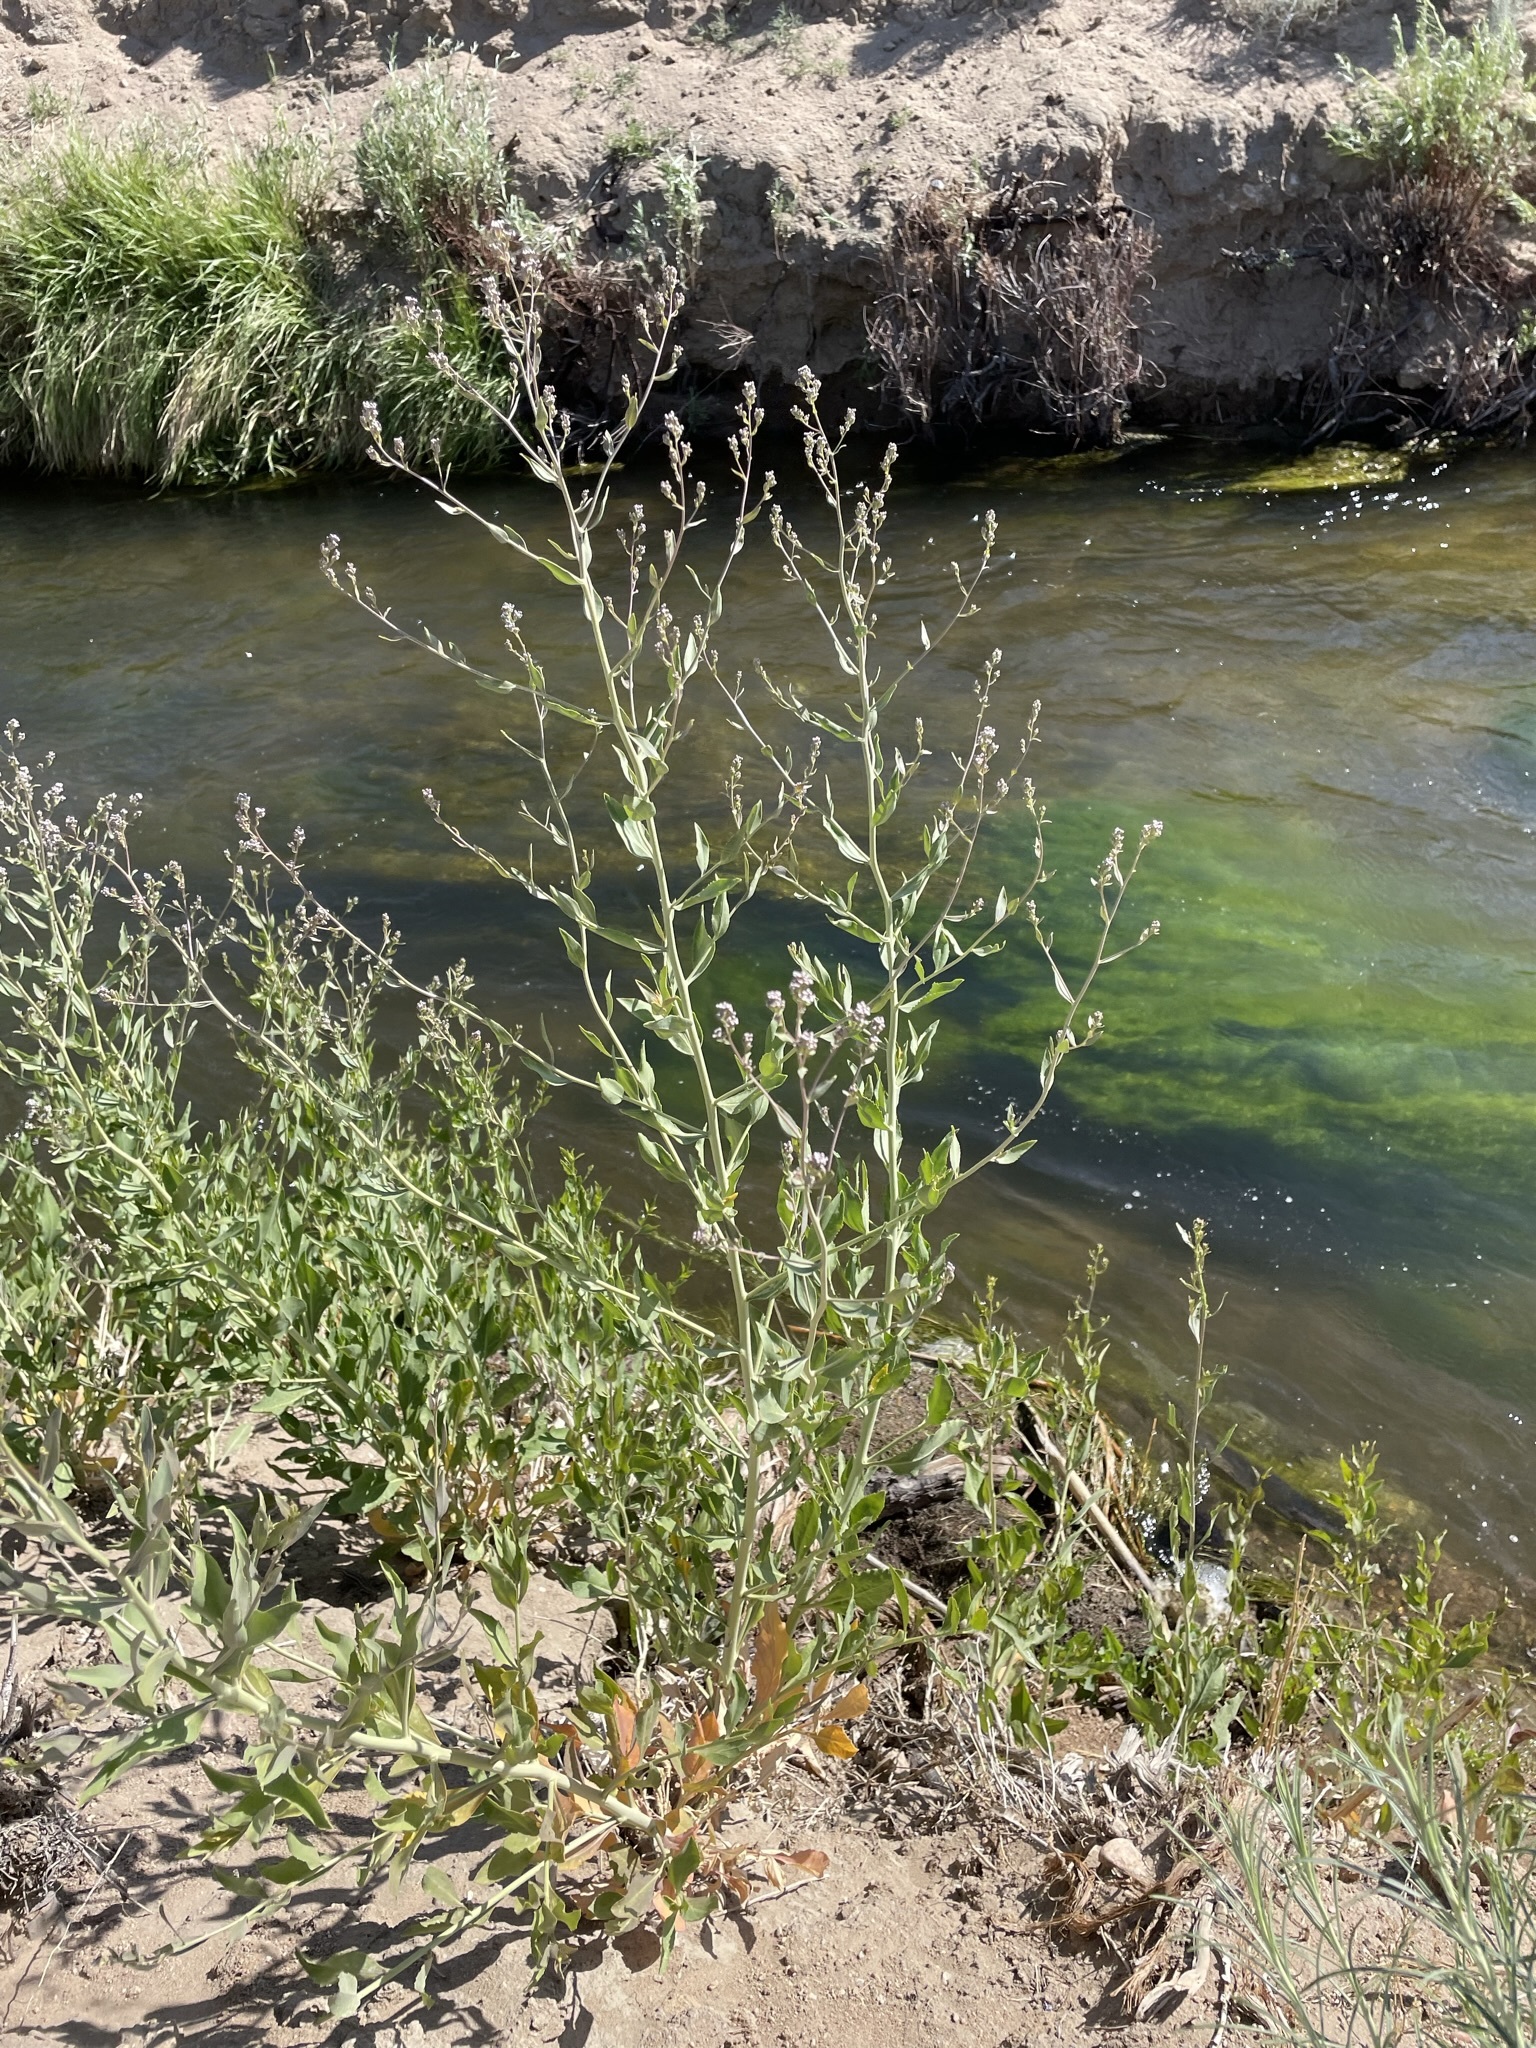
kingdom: Plantae
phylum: Tracheophyta
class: Magnoliopsida
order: Brassicales
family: Brassicaceae
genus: Lepidium
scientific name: Lepidium latifolium
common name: Dittander
